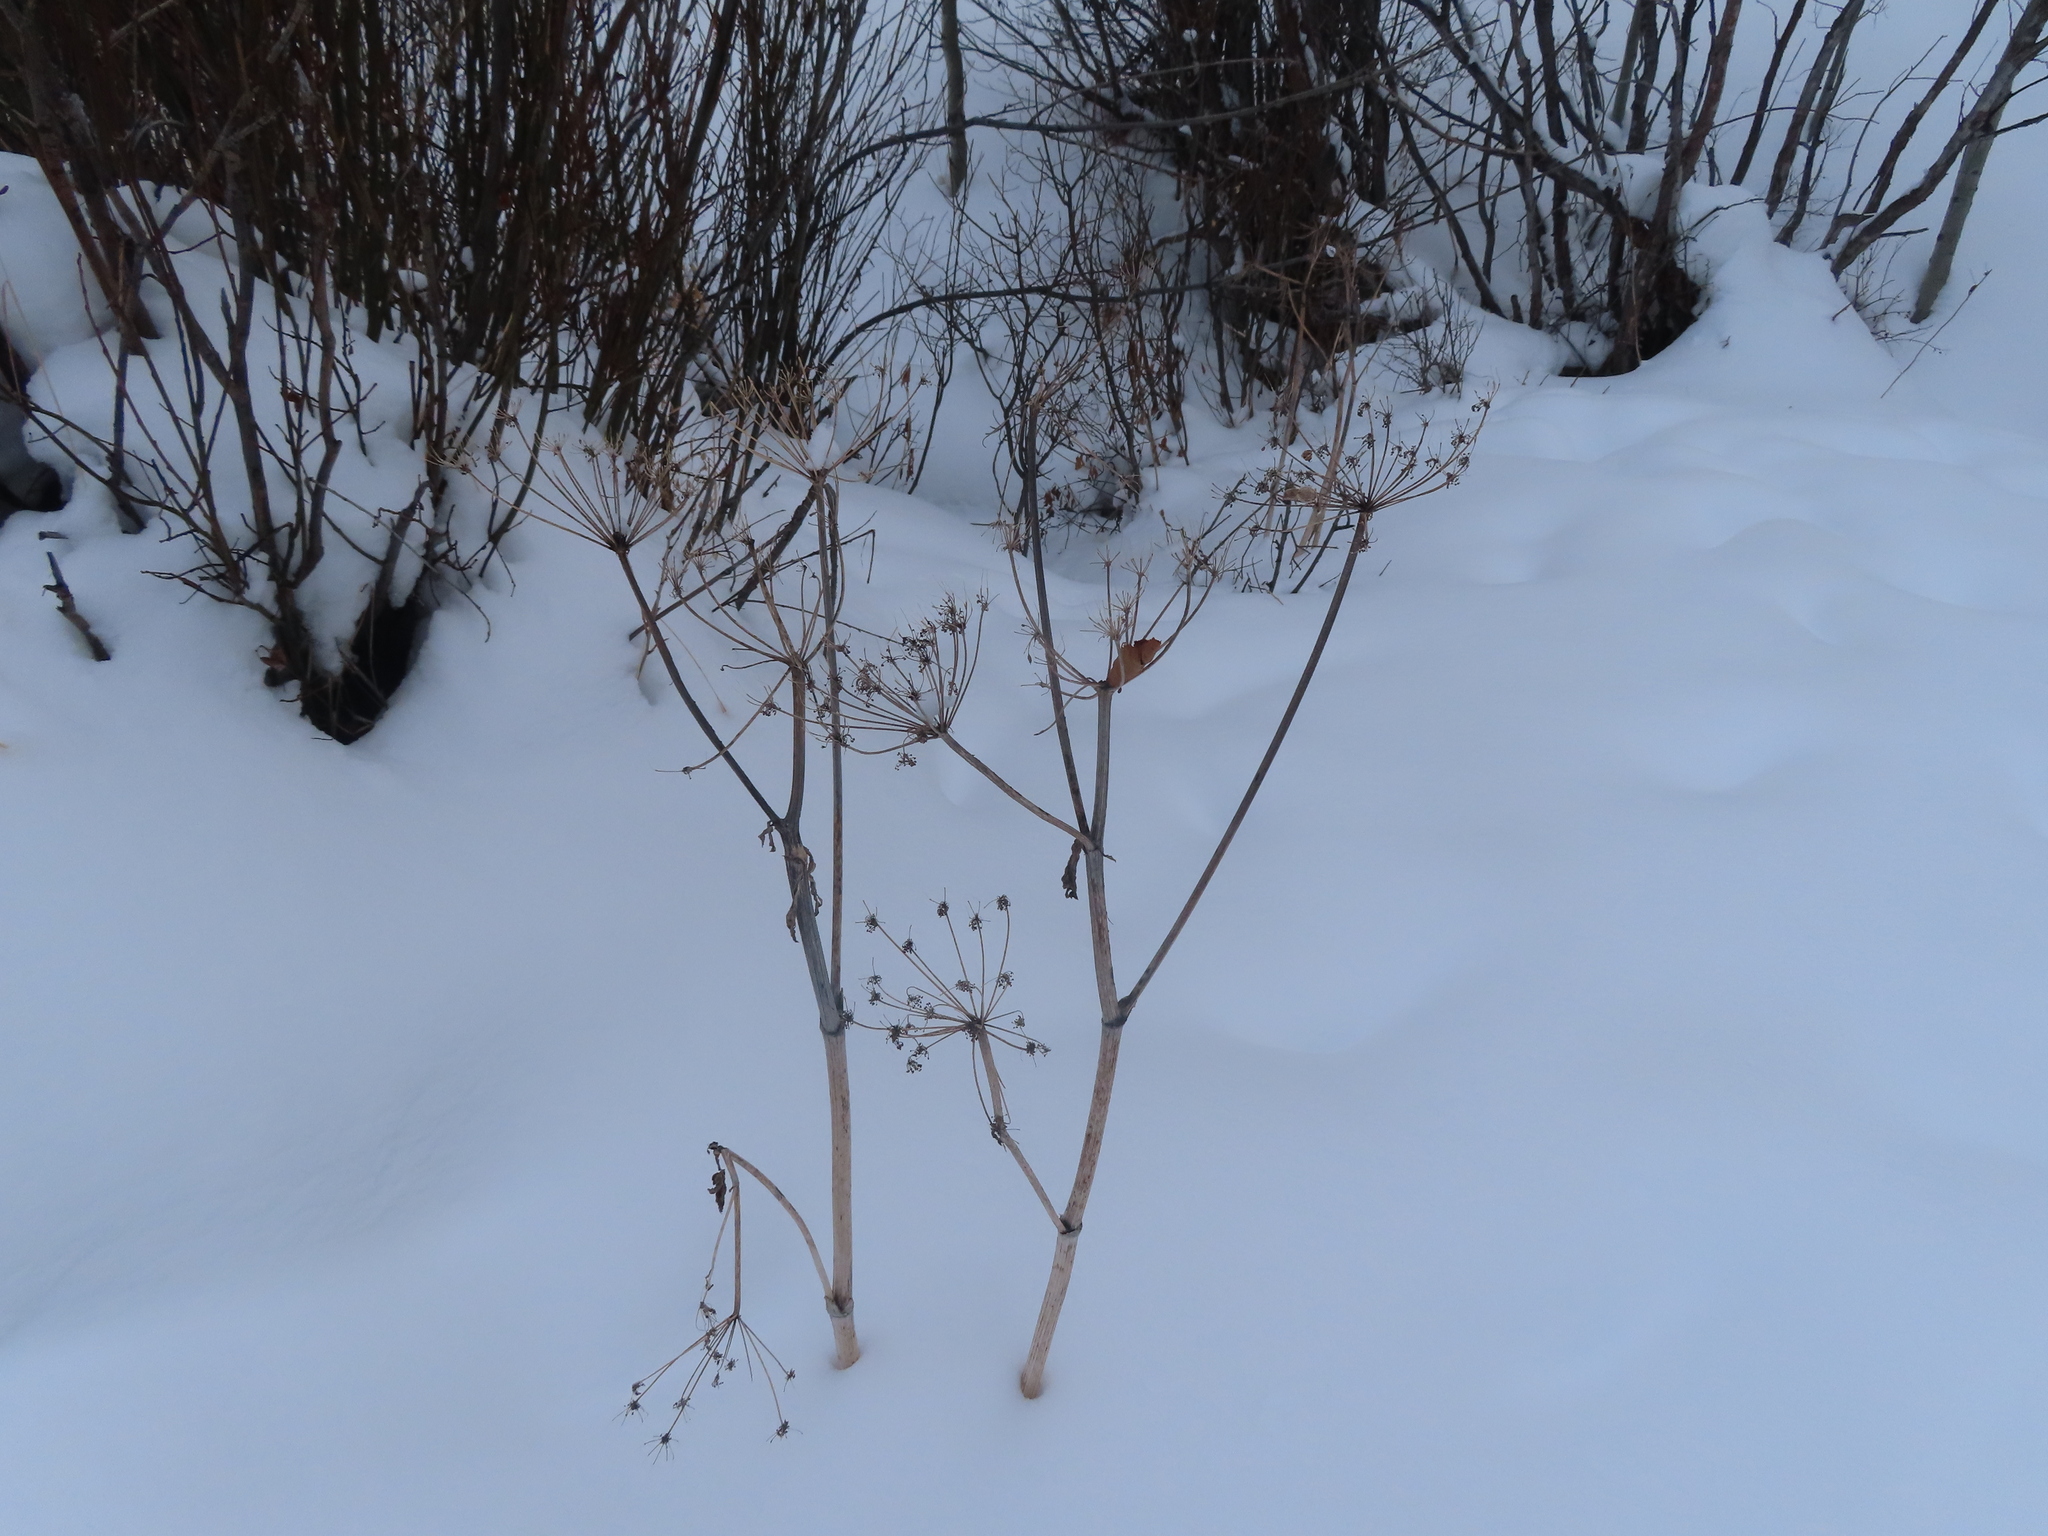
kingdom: Plantae
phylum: Tracheophyta
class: Magnoliopsida
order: Apiales
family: Apiaceae
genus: Heracleum
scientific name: Heracleum maximum
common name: American cow parsnip
